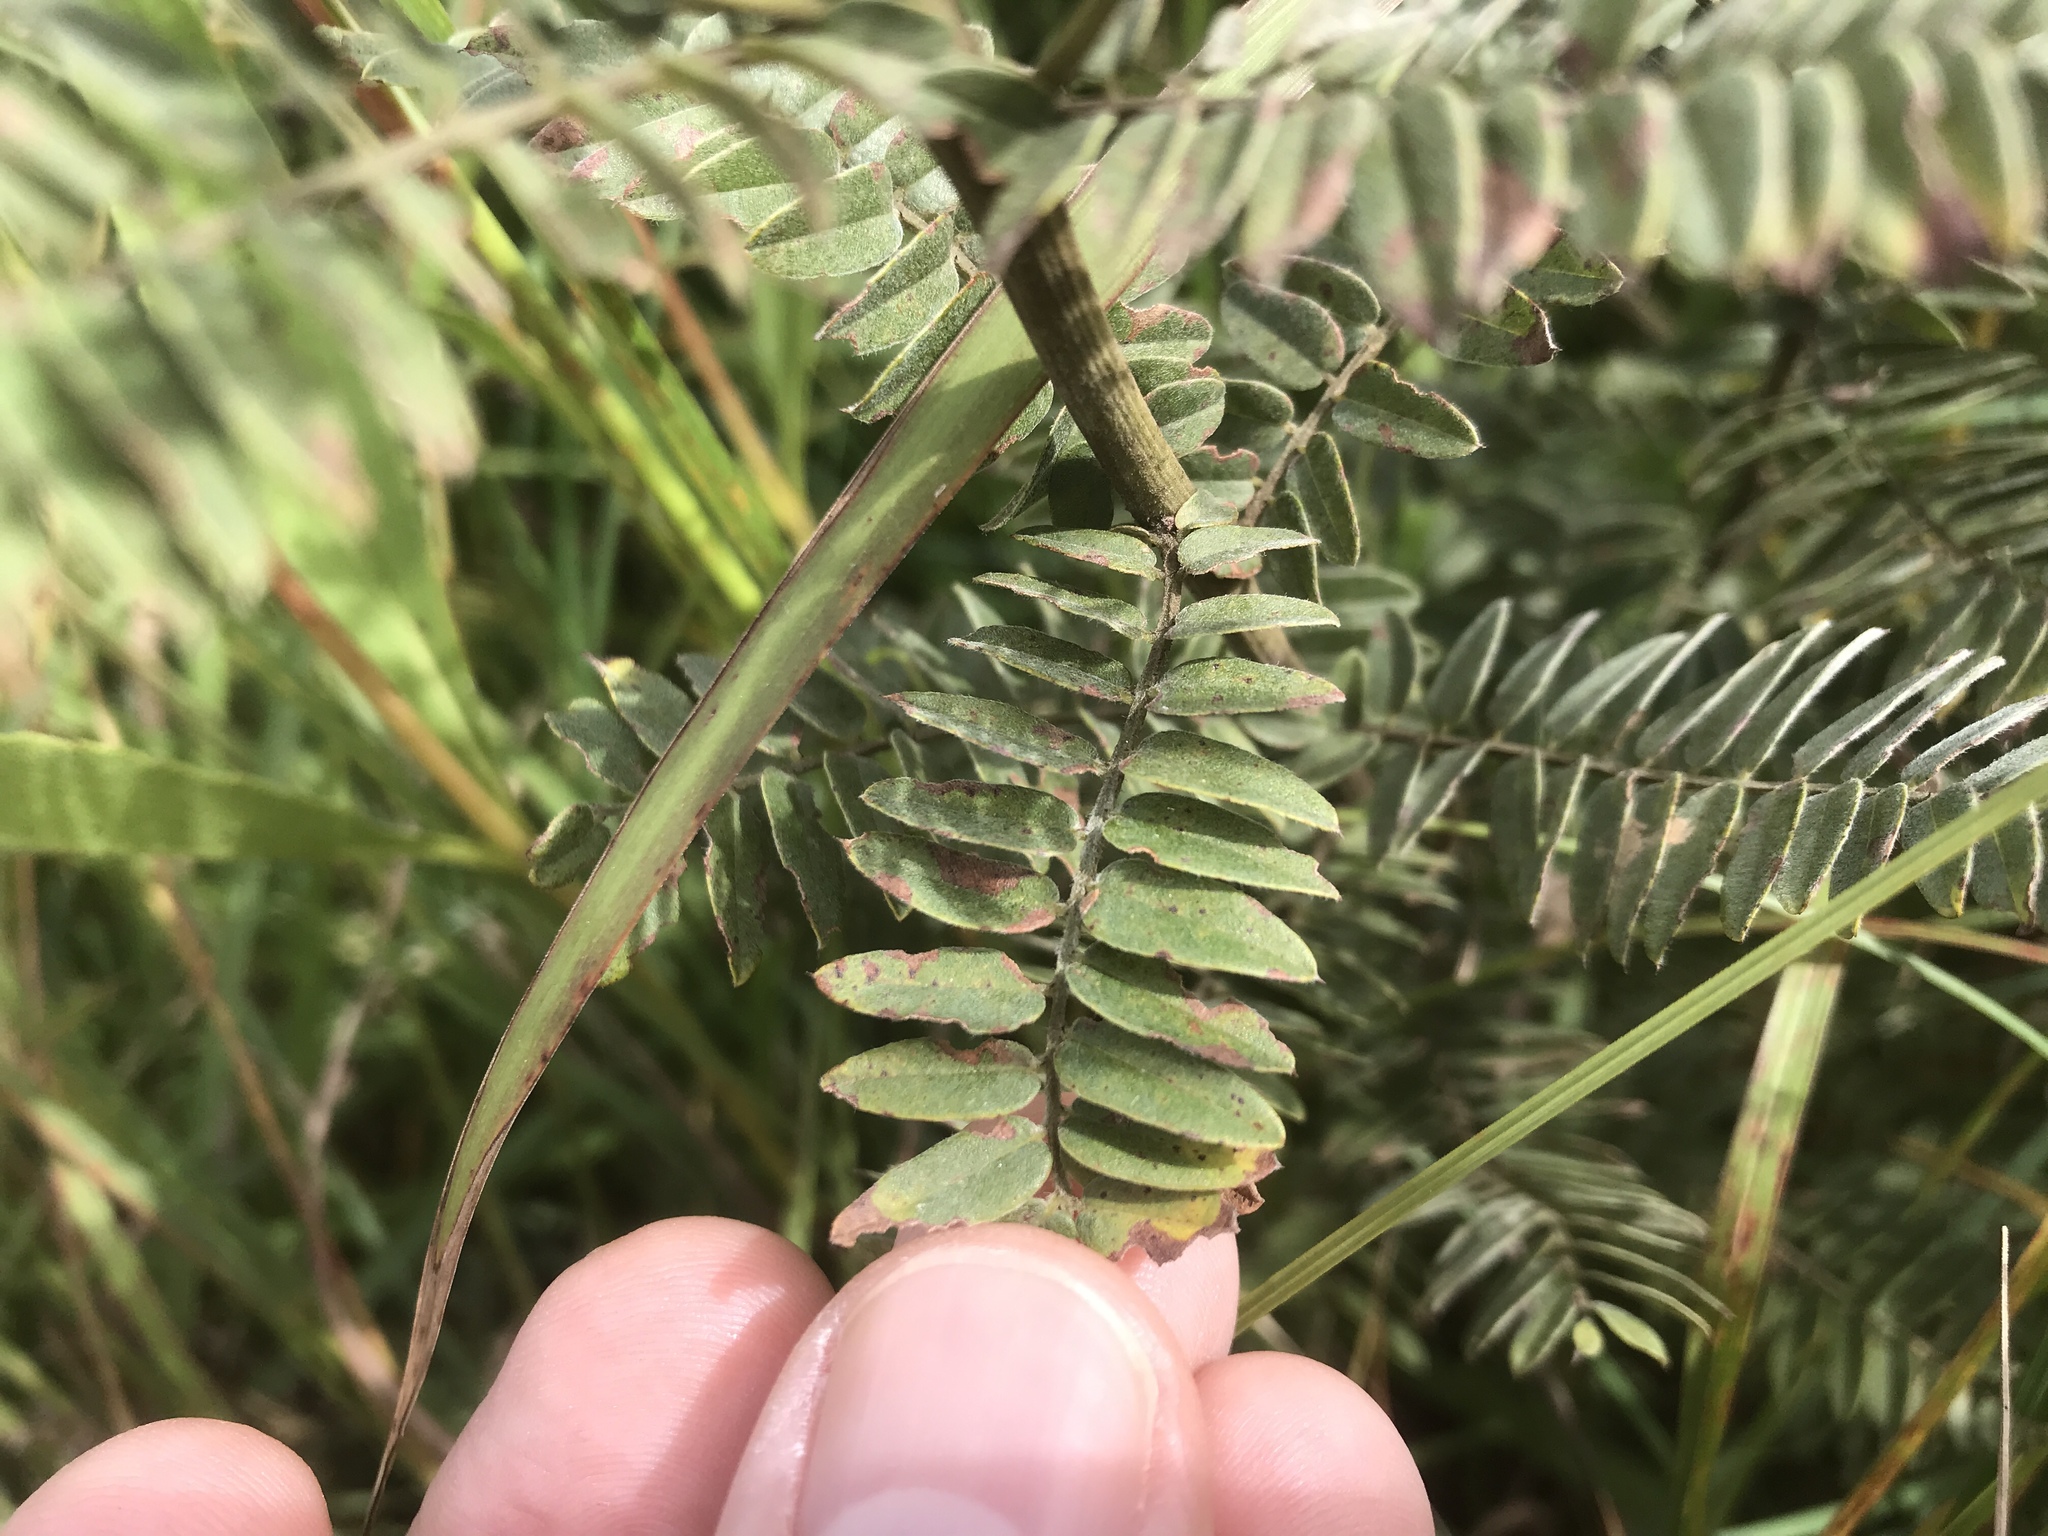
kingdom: Plantae
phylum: Tracheophyta
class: Magnoliopsida
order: Fabales
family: Fabaceae
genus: Amorpha
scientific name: Amorpha canescens
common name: Leadplant
